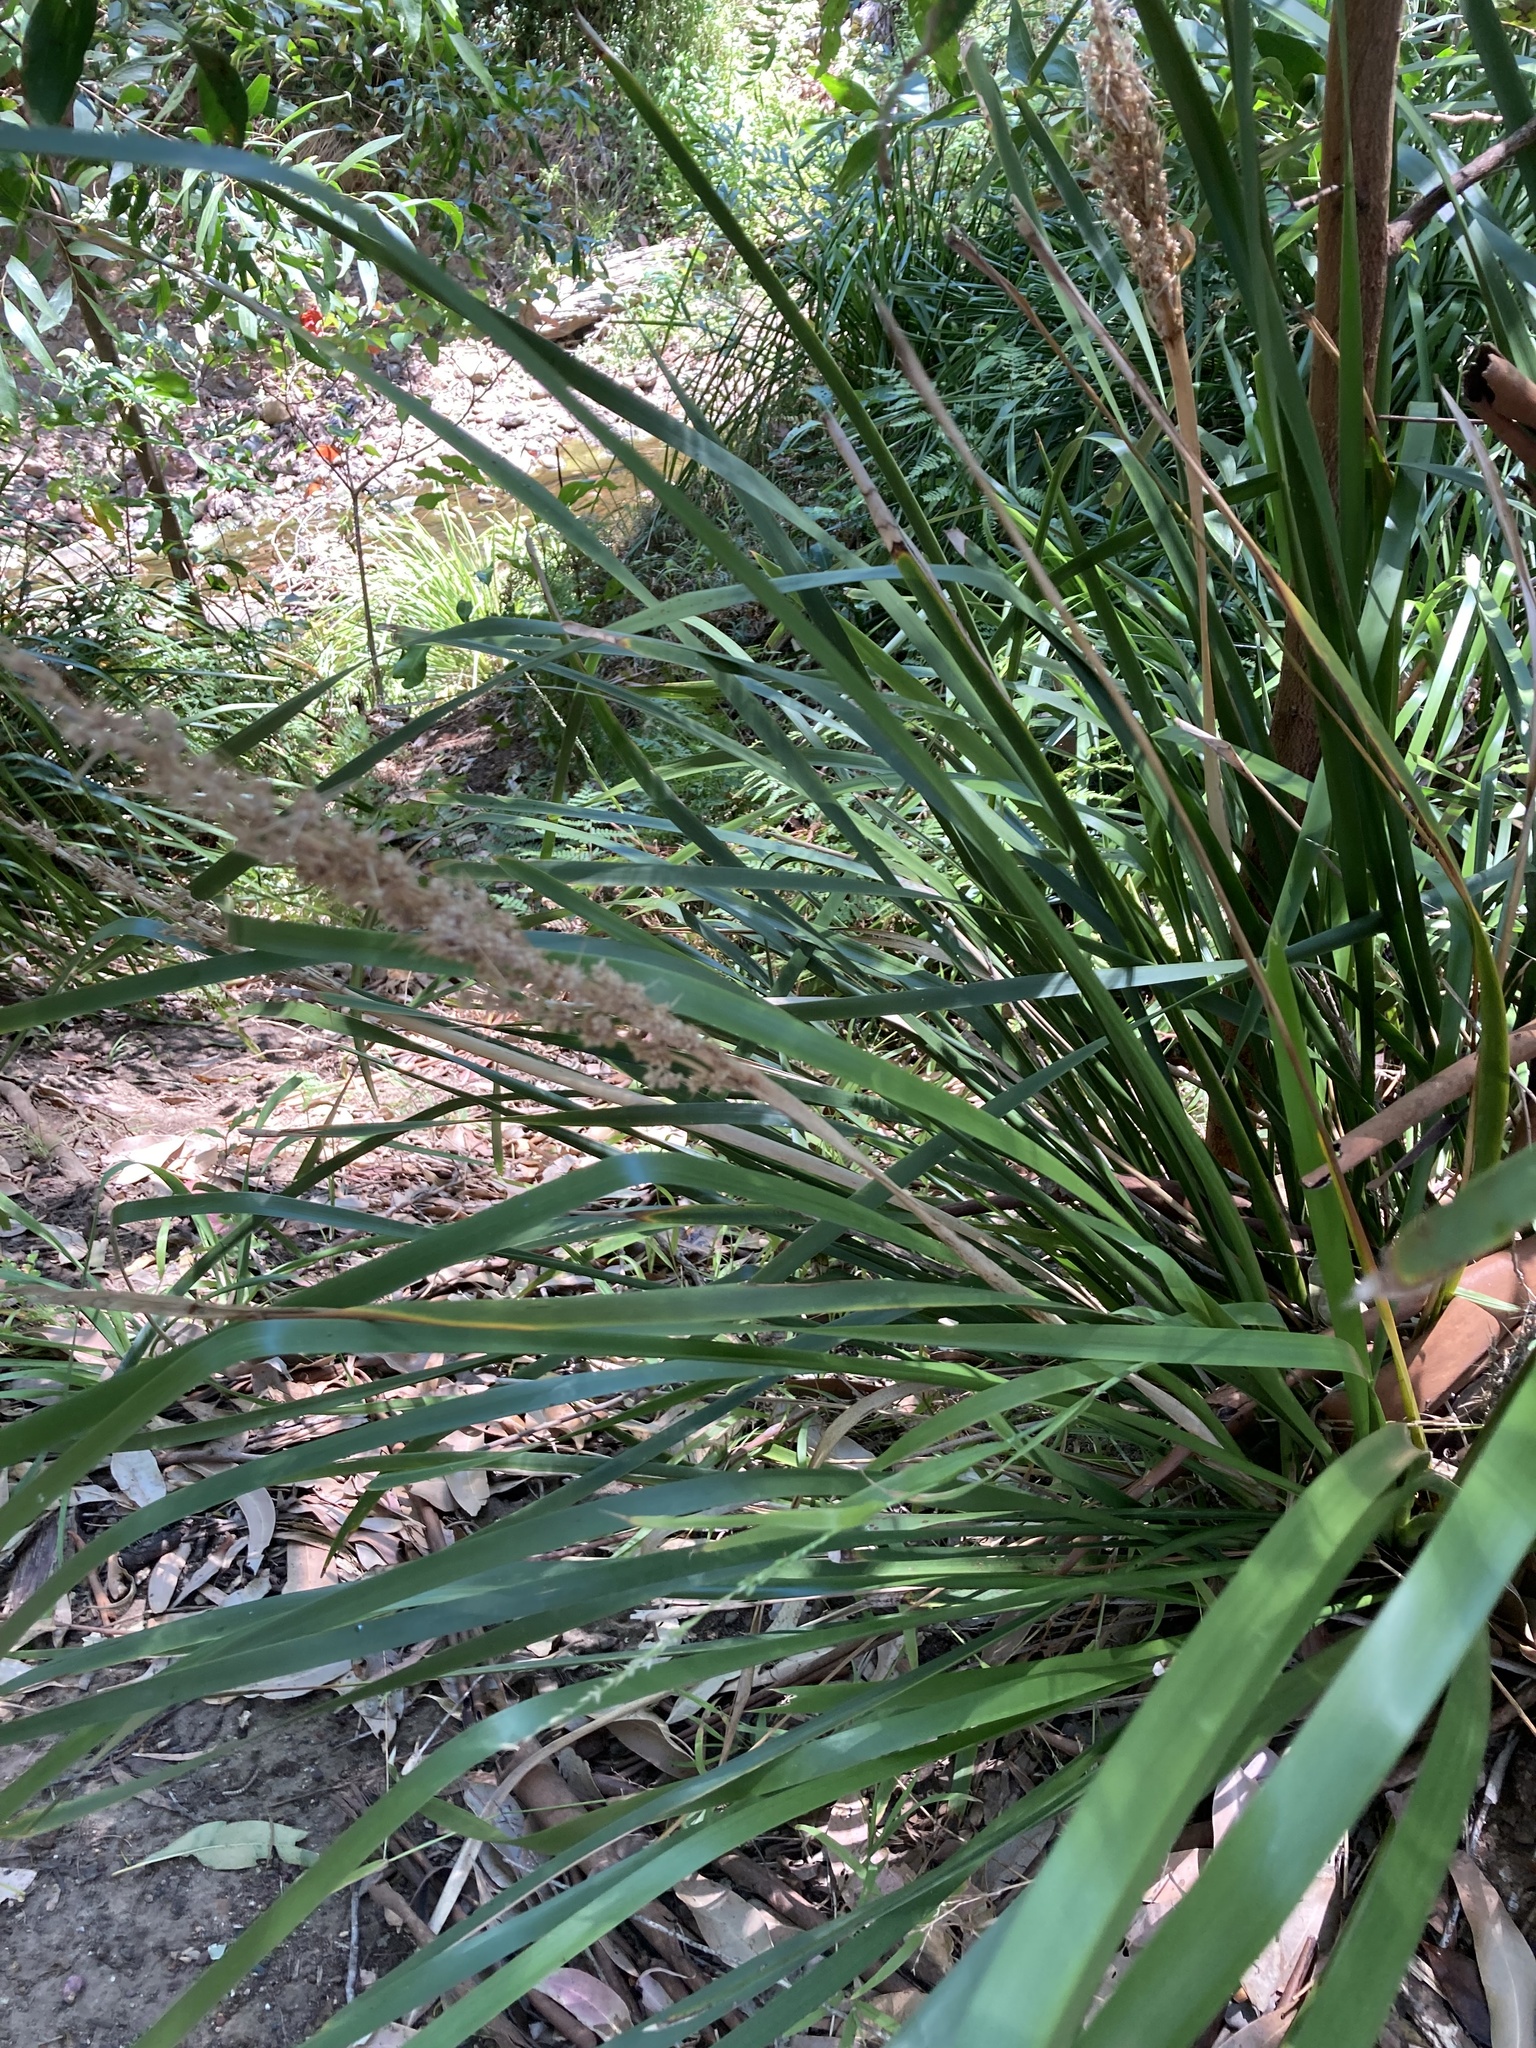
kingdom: Plantae
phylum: Tracheophyta
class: Liliopsida
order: Asparagales
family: Asparagaceae
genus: Lomandra
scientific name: Lomandra hystrix
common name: Creek mat-rush
